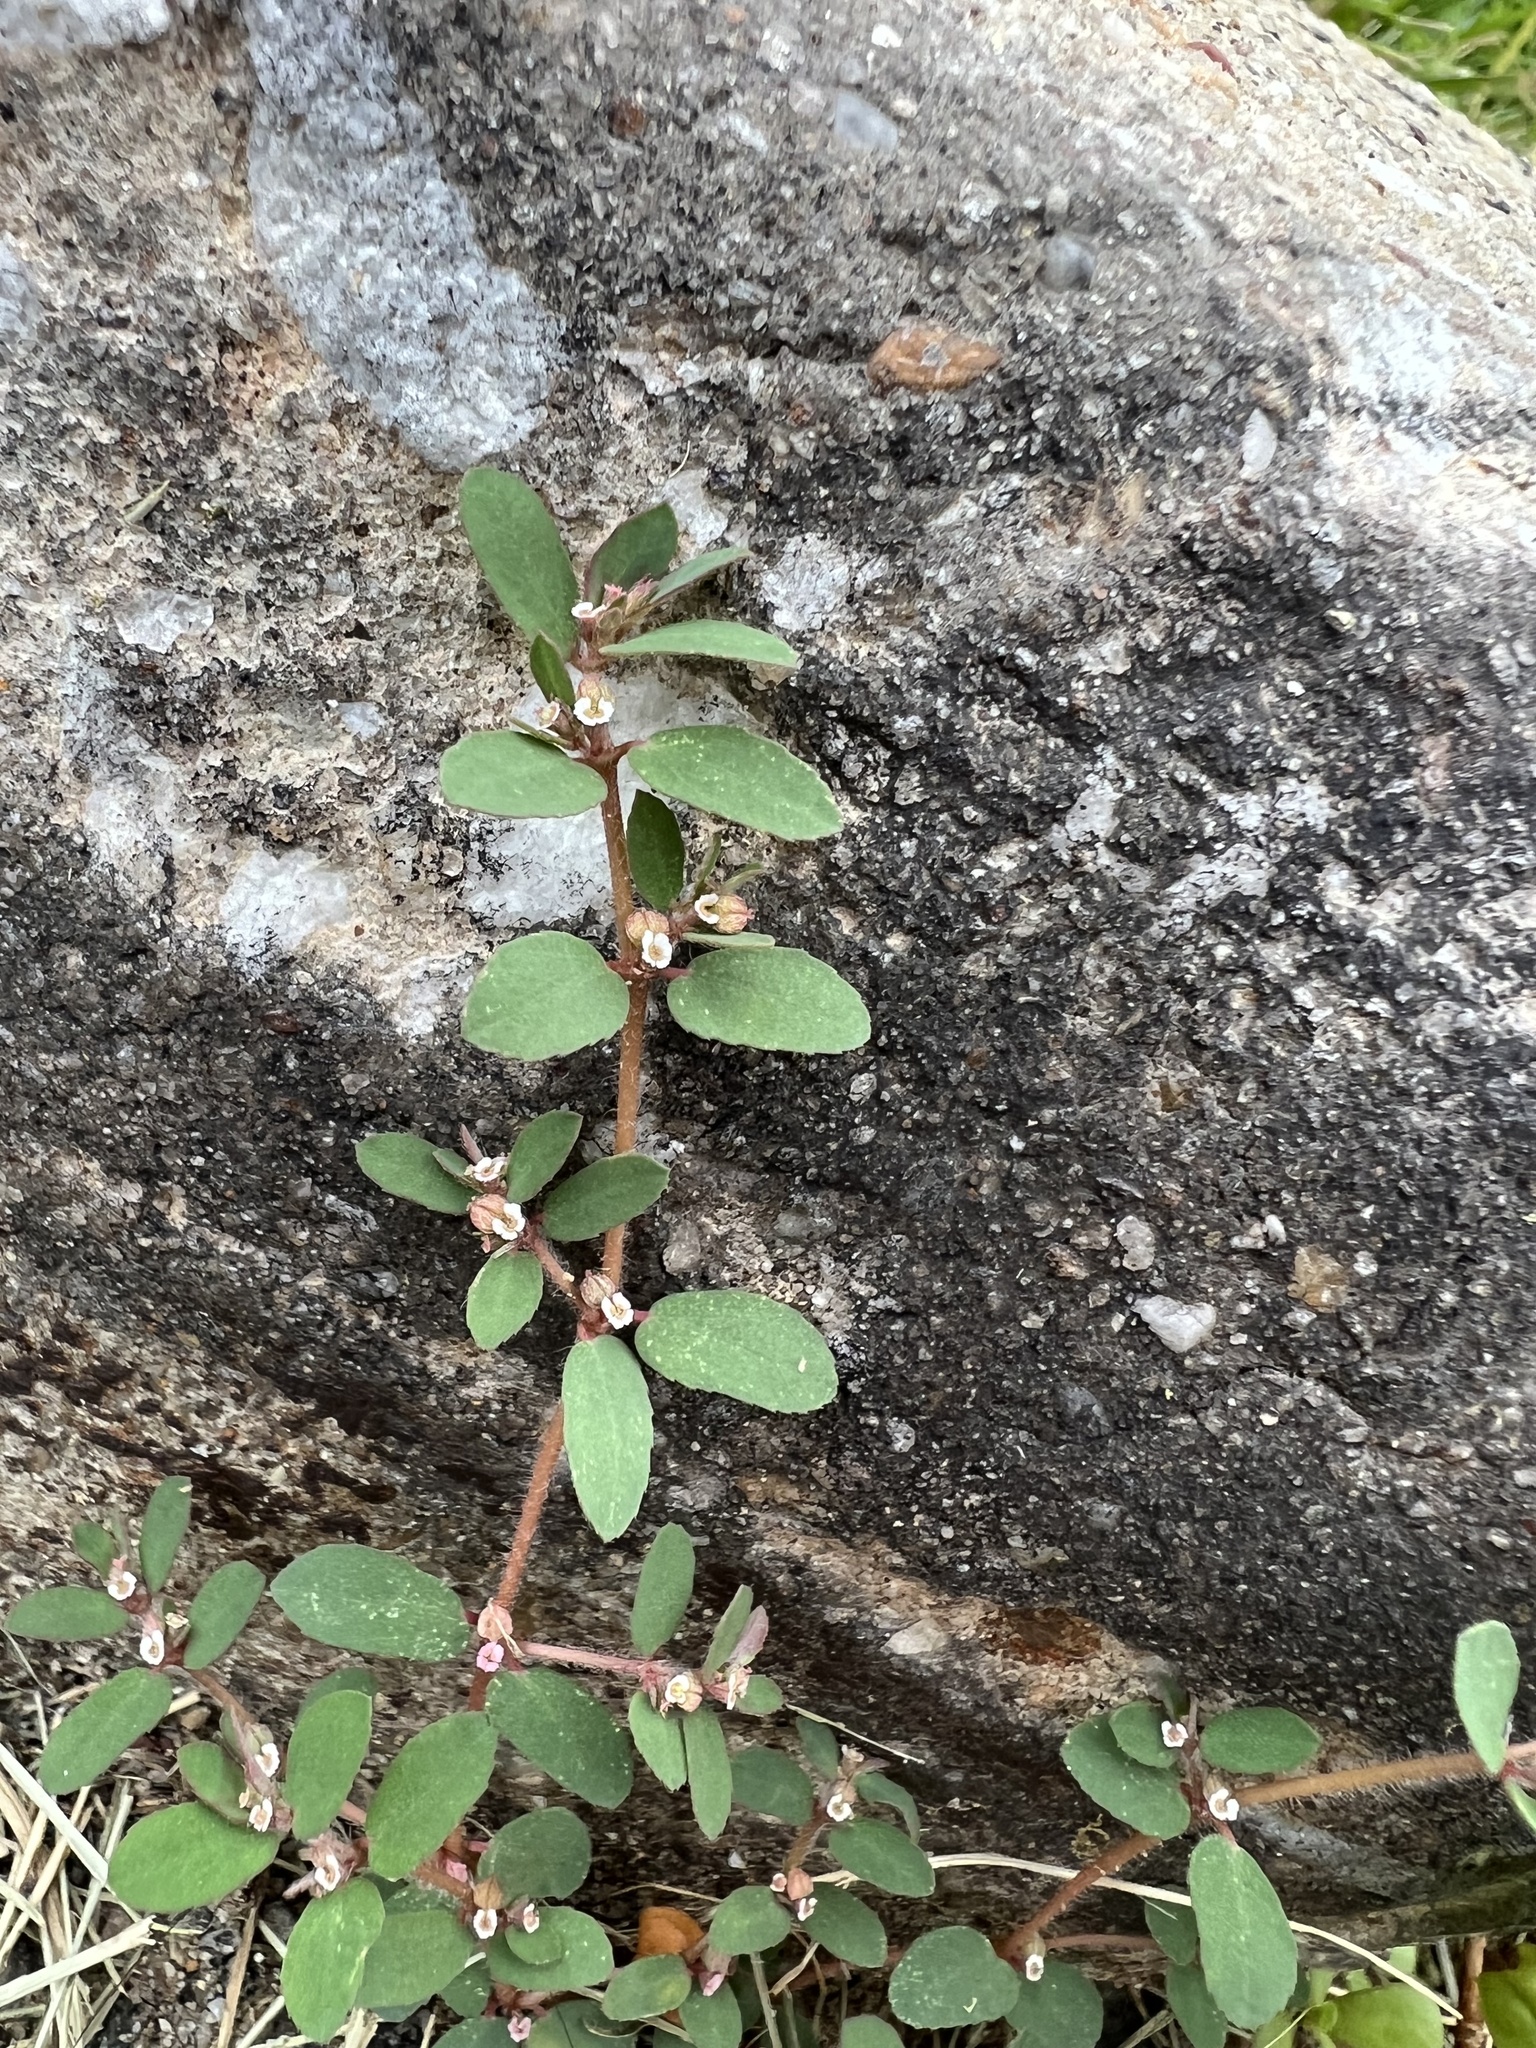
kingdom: Plantae
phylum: Tracheophyta
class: Magnoliopsida
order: Malpighiales
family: Euphorbiaceae
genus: Euphorbia
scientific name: Euphorbia maculata
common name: Spotted spurge
